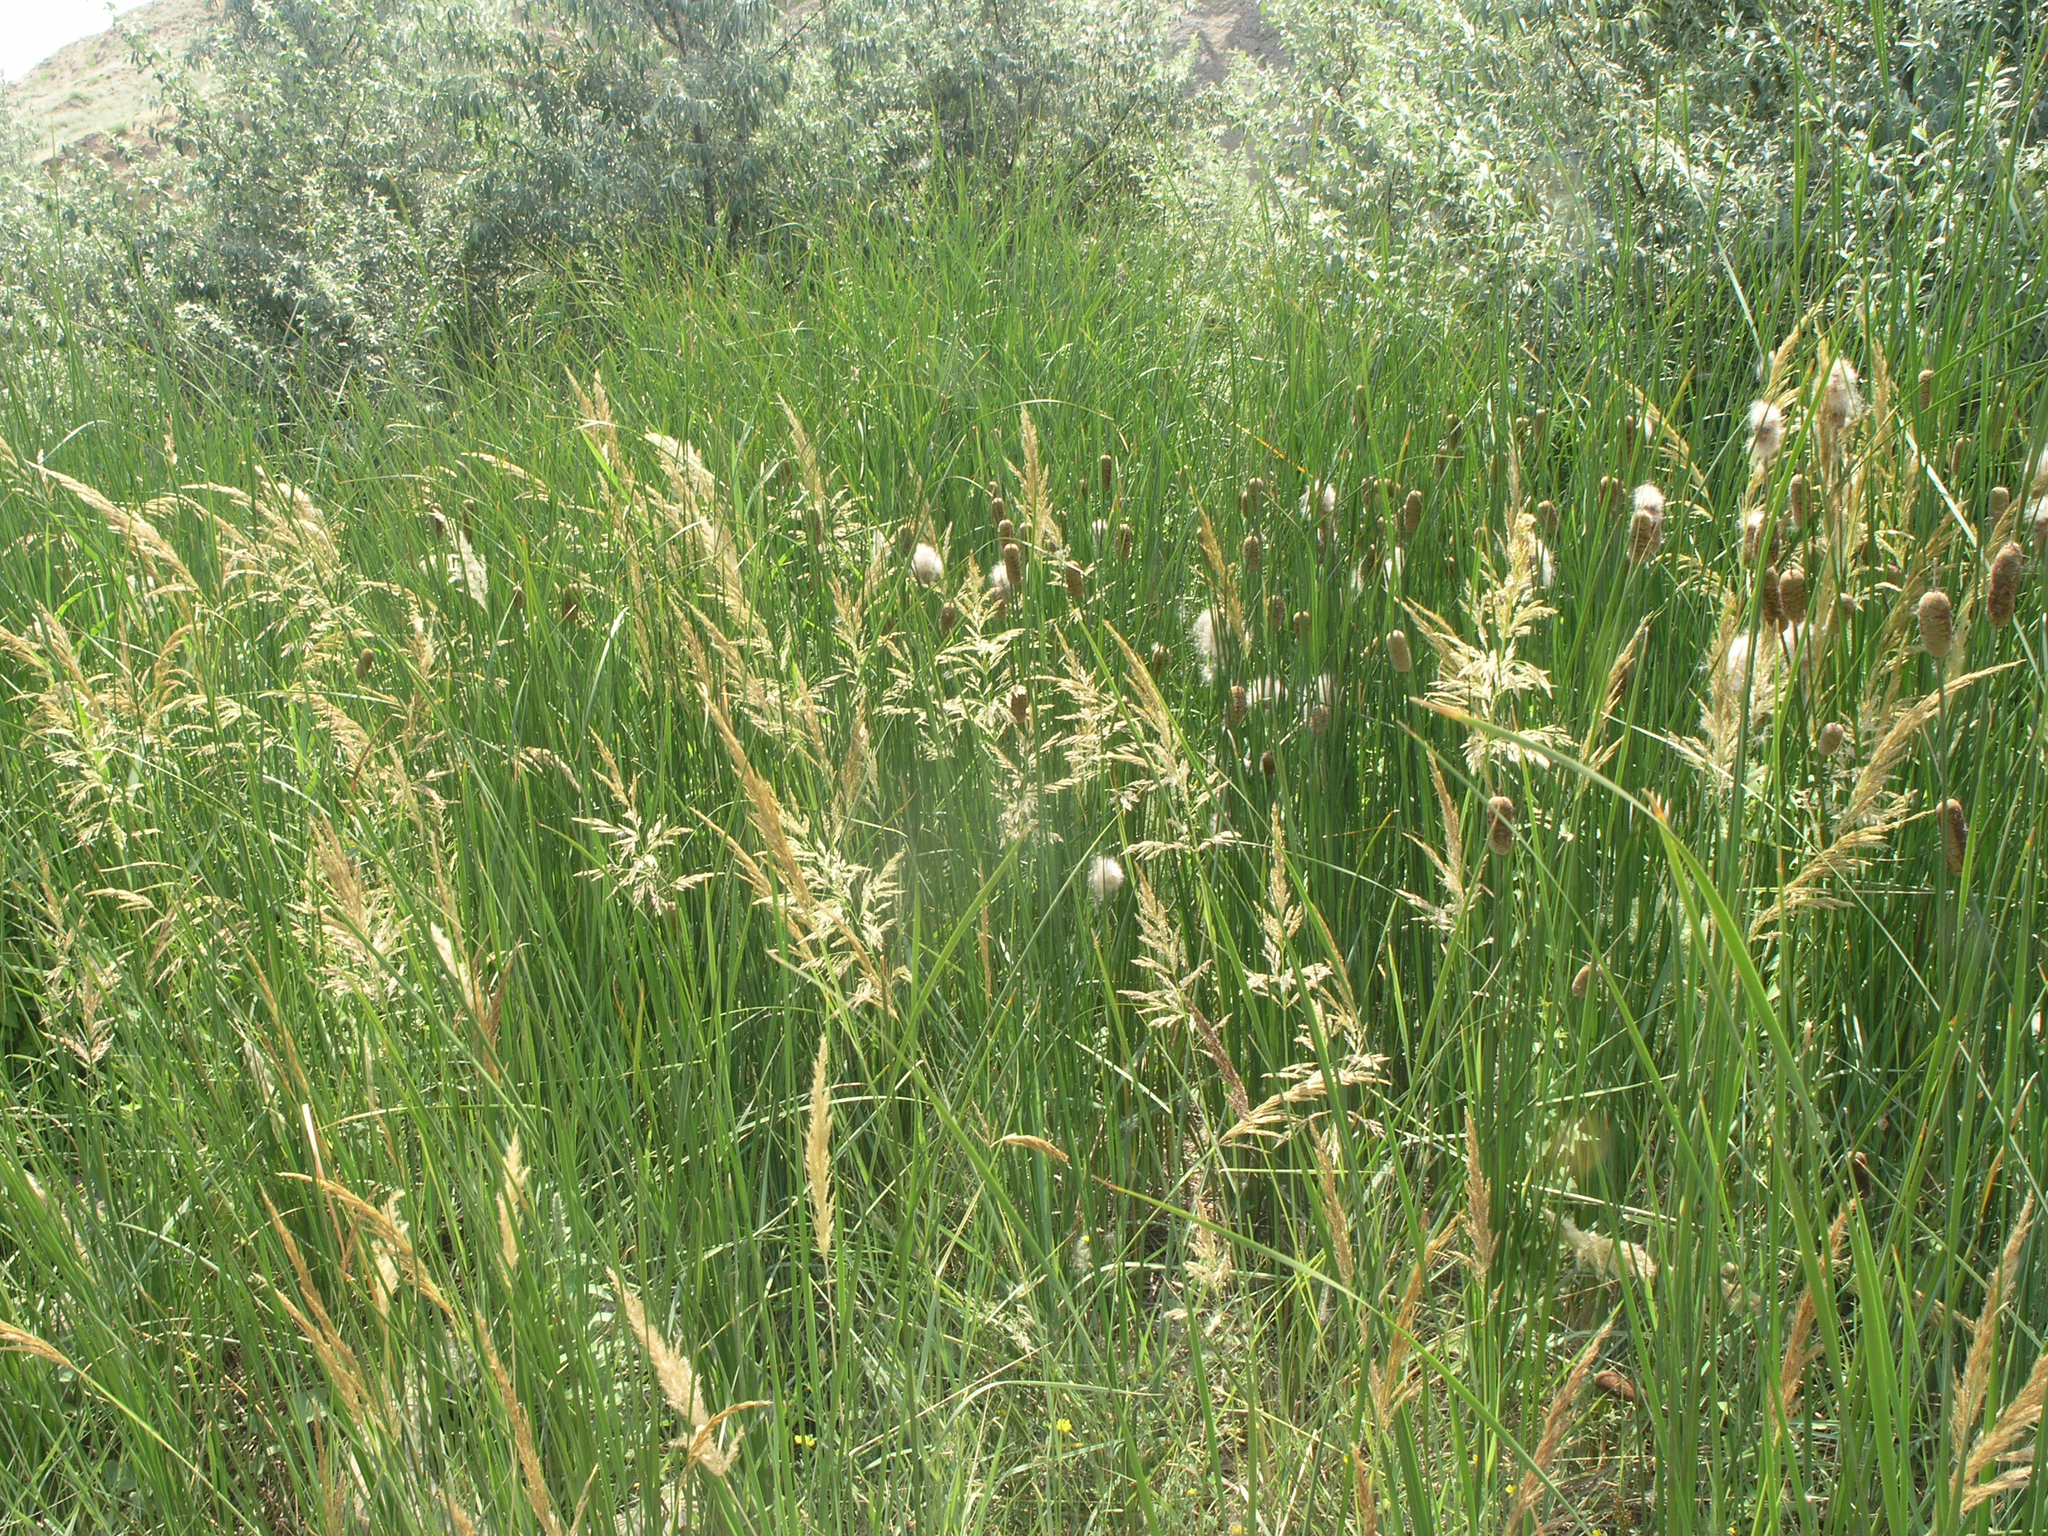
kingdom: Plantae
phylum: Tracheophyta
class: Liliopsida
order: Poales
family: Typhaceae
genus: Typha
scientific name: Typha laxmannii
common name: Laxman’s bulrush
